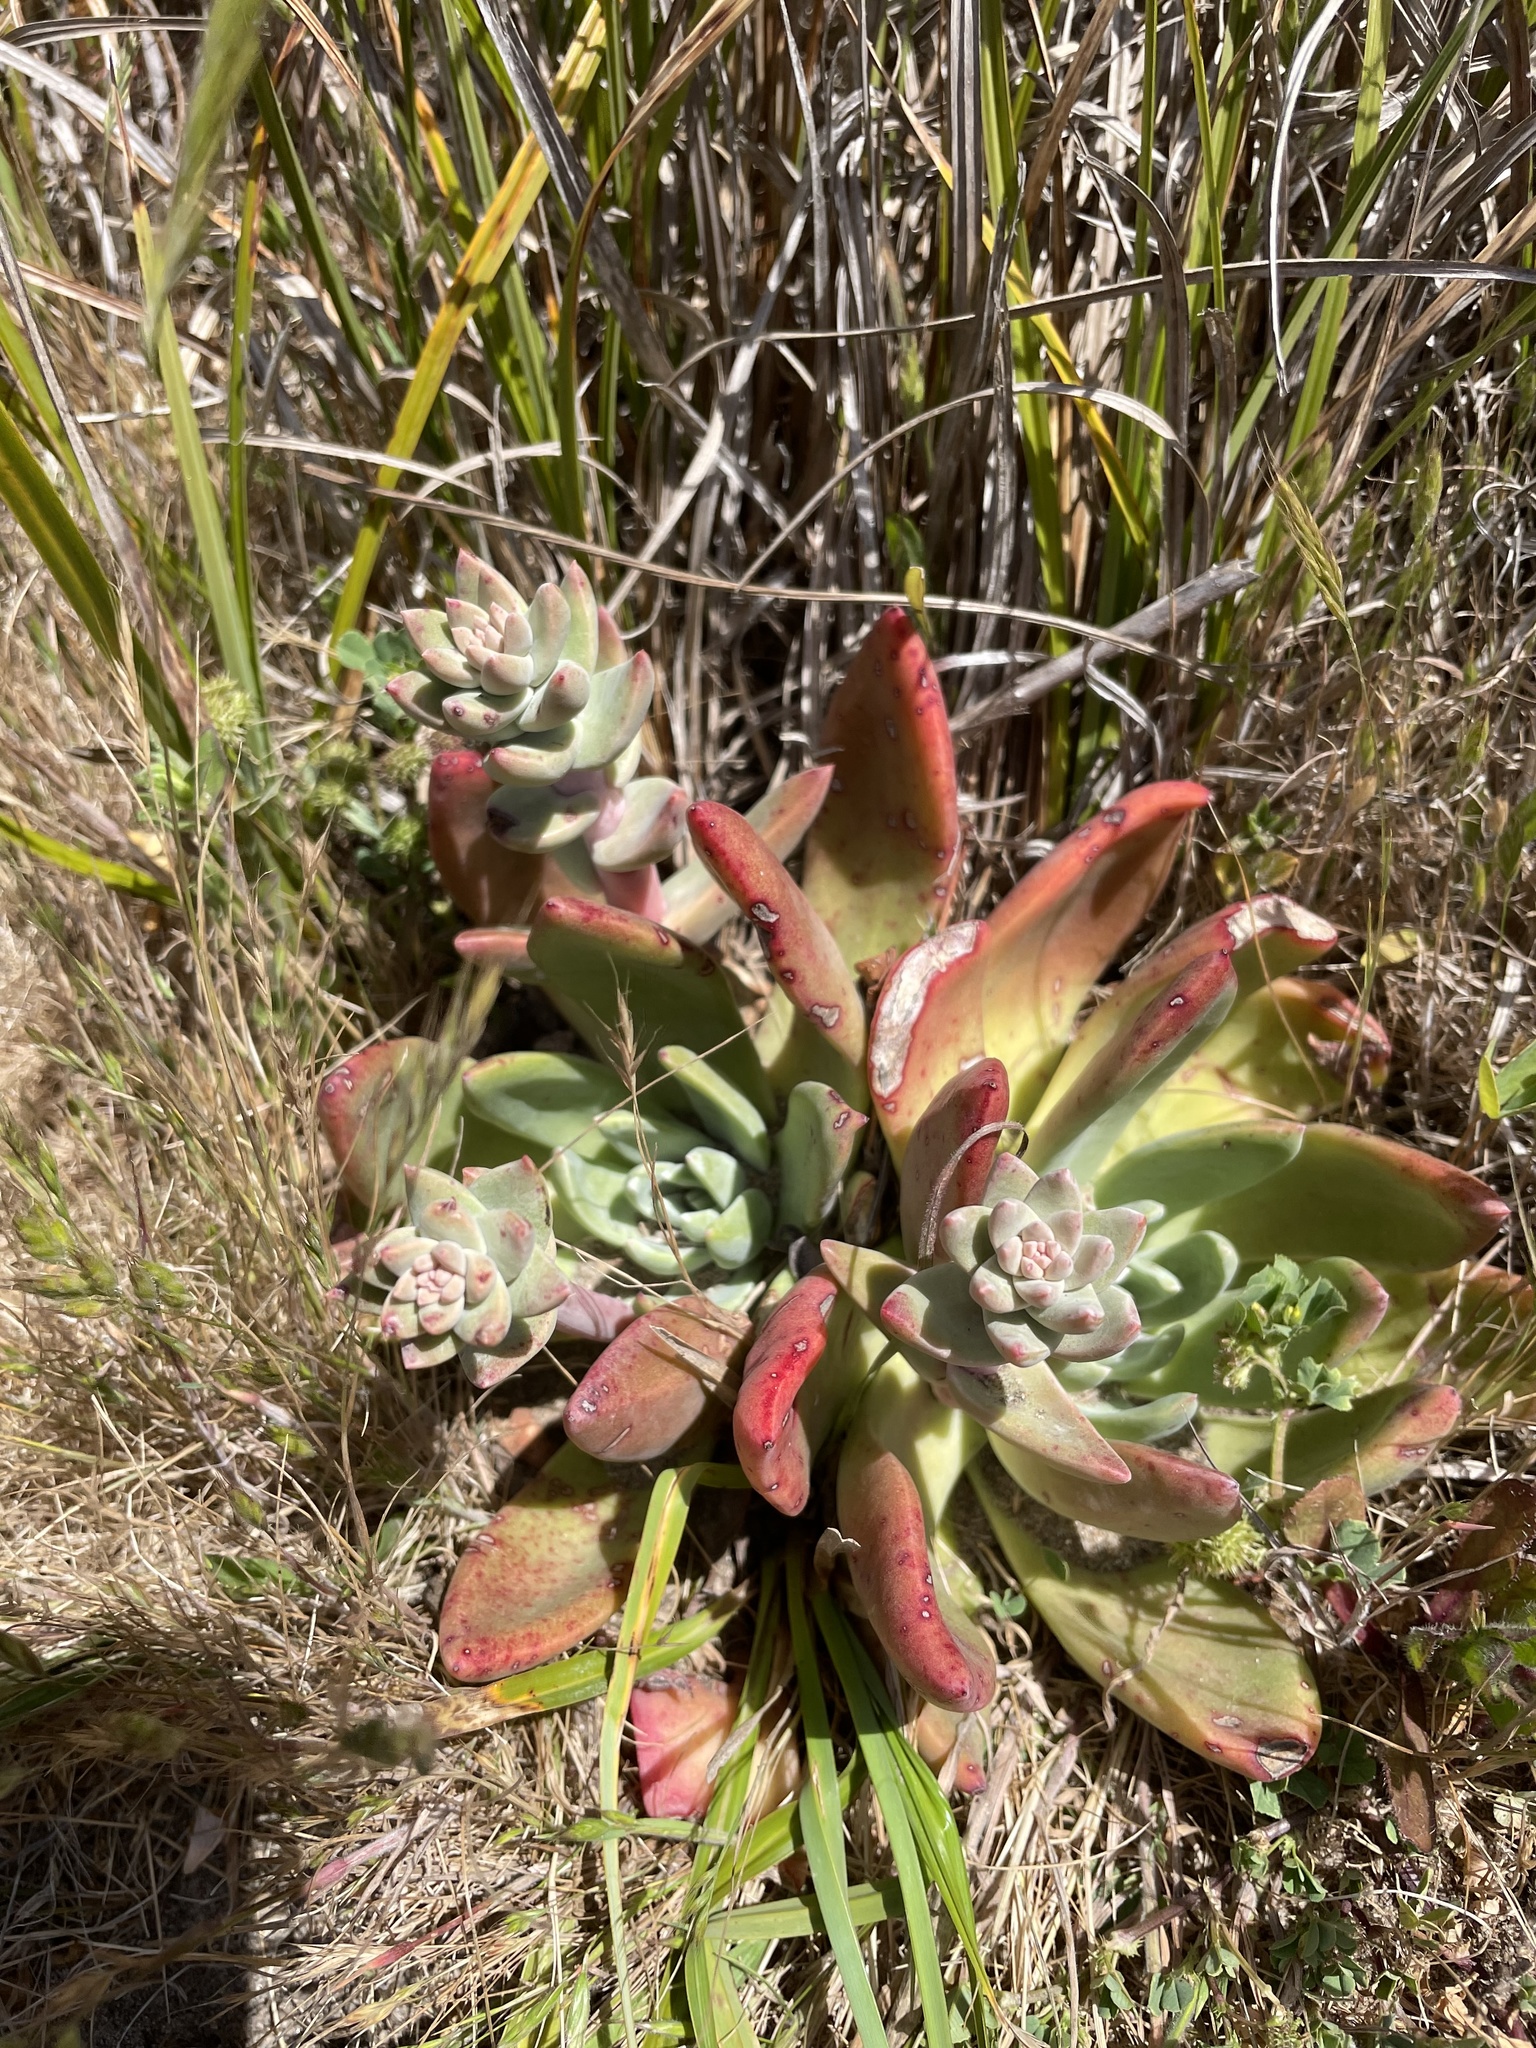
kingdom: Plantae
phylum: Tracheophyta
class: Magnoliopsida
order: Saxifragales
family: Crassulaceae
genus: Dudleya
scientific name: Dudleya caespitosa
